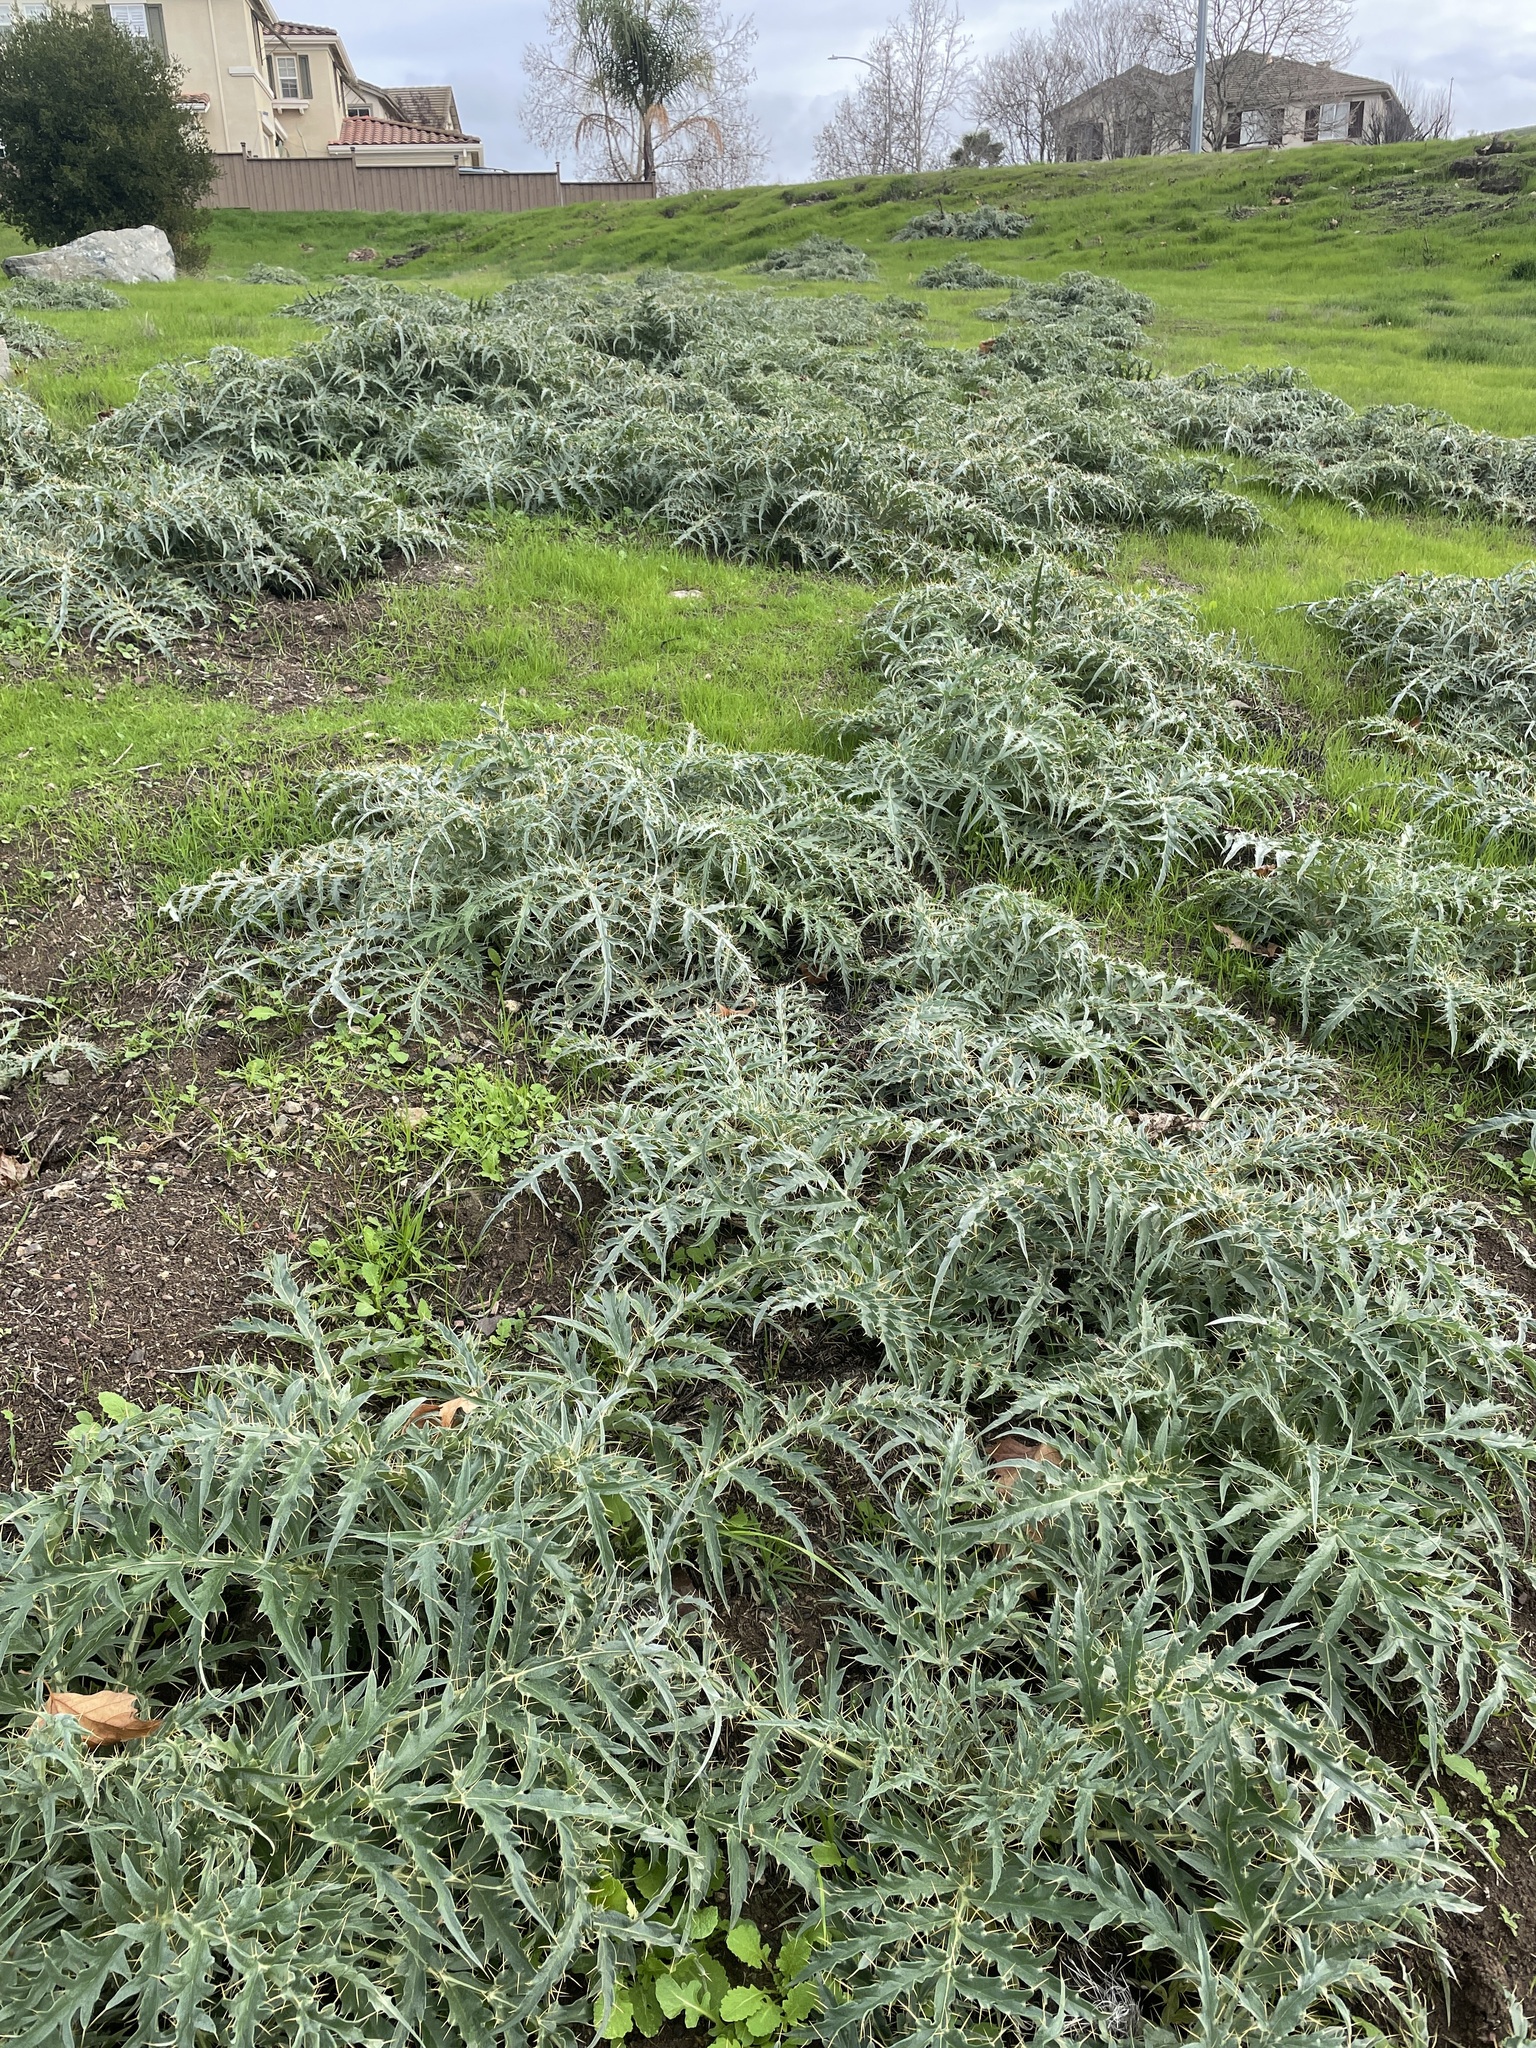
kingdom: Plantae
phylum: Tracheophyta
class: Magnoliopsida
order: Asterales
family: Asteraceae
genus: Cynara
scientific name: Cynara cardunculus
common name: Globe artichoke
